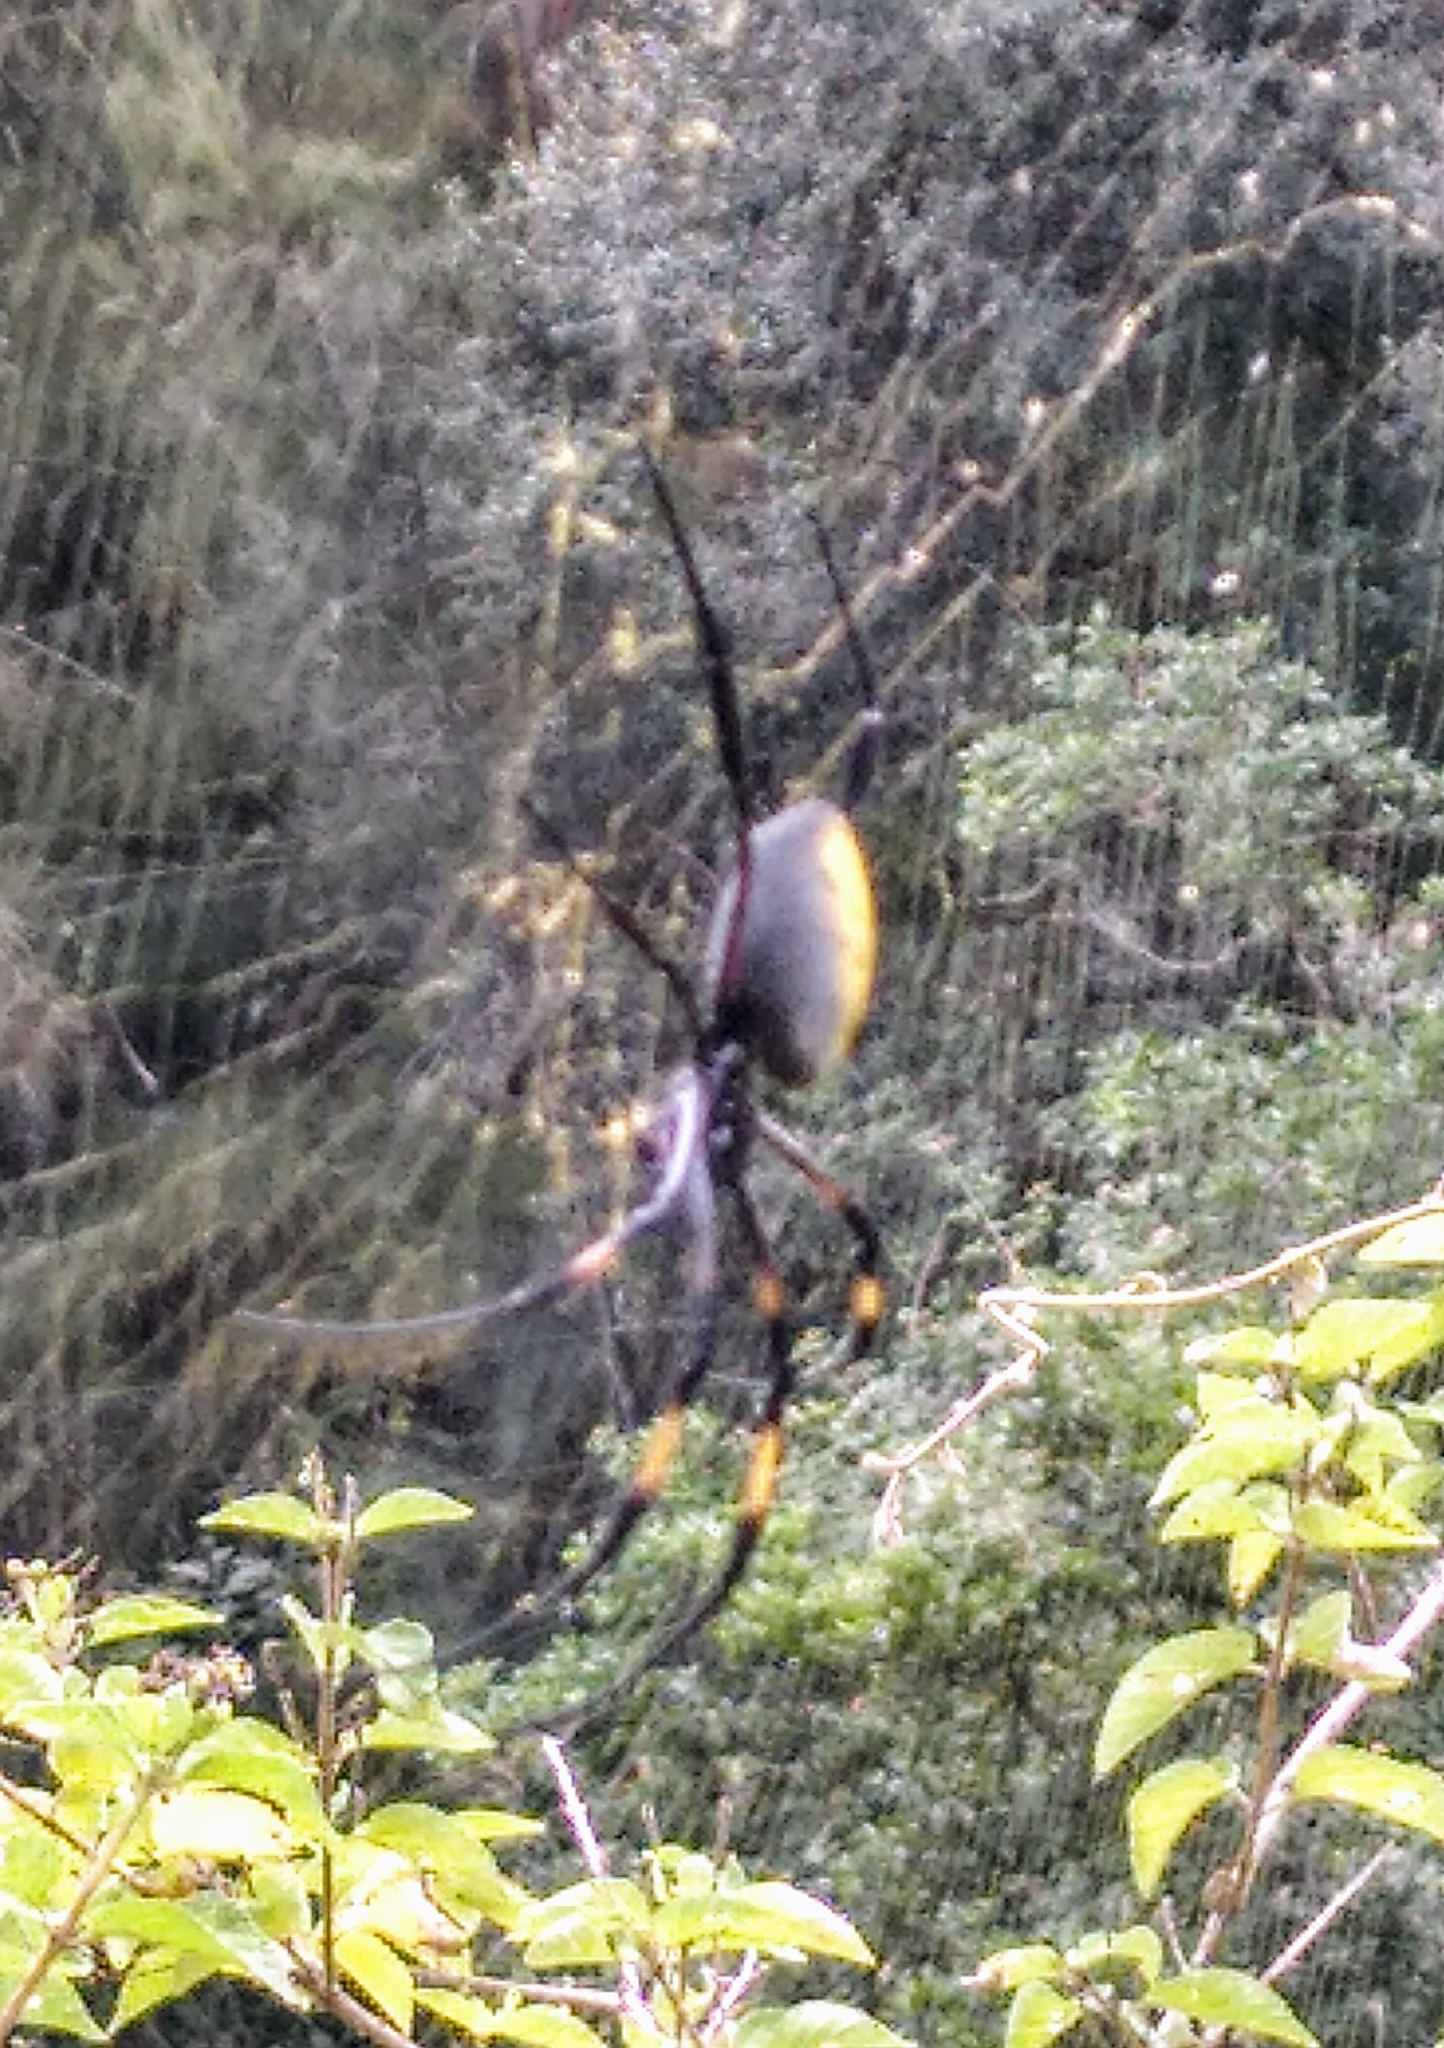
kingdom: Animalia
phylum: Arthropoda
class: Arachnida
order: Araneae
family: Araneidae
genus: Trichonephila
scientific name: Trichonephila inaurata
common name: Red-legged golden orb weaver
